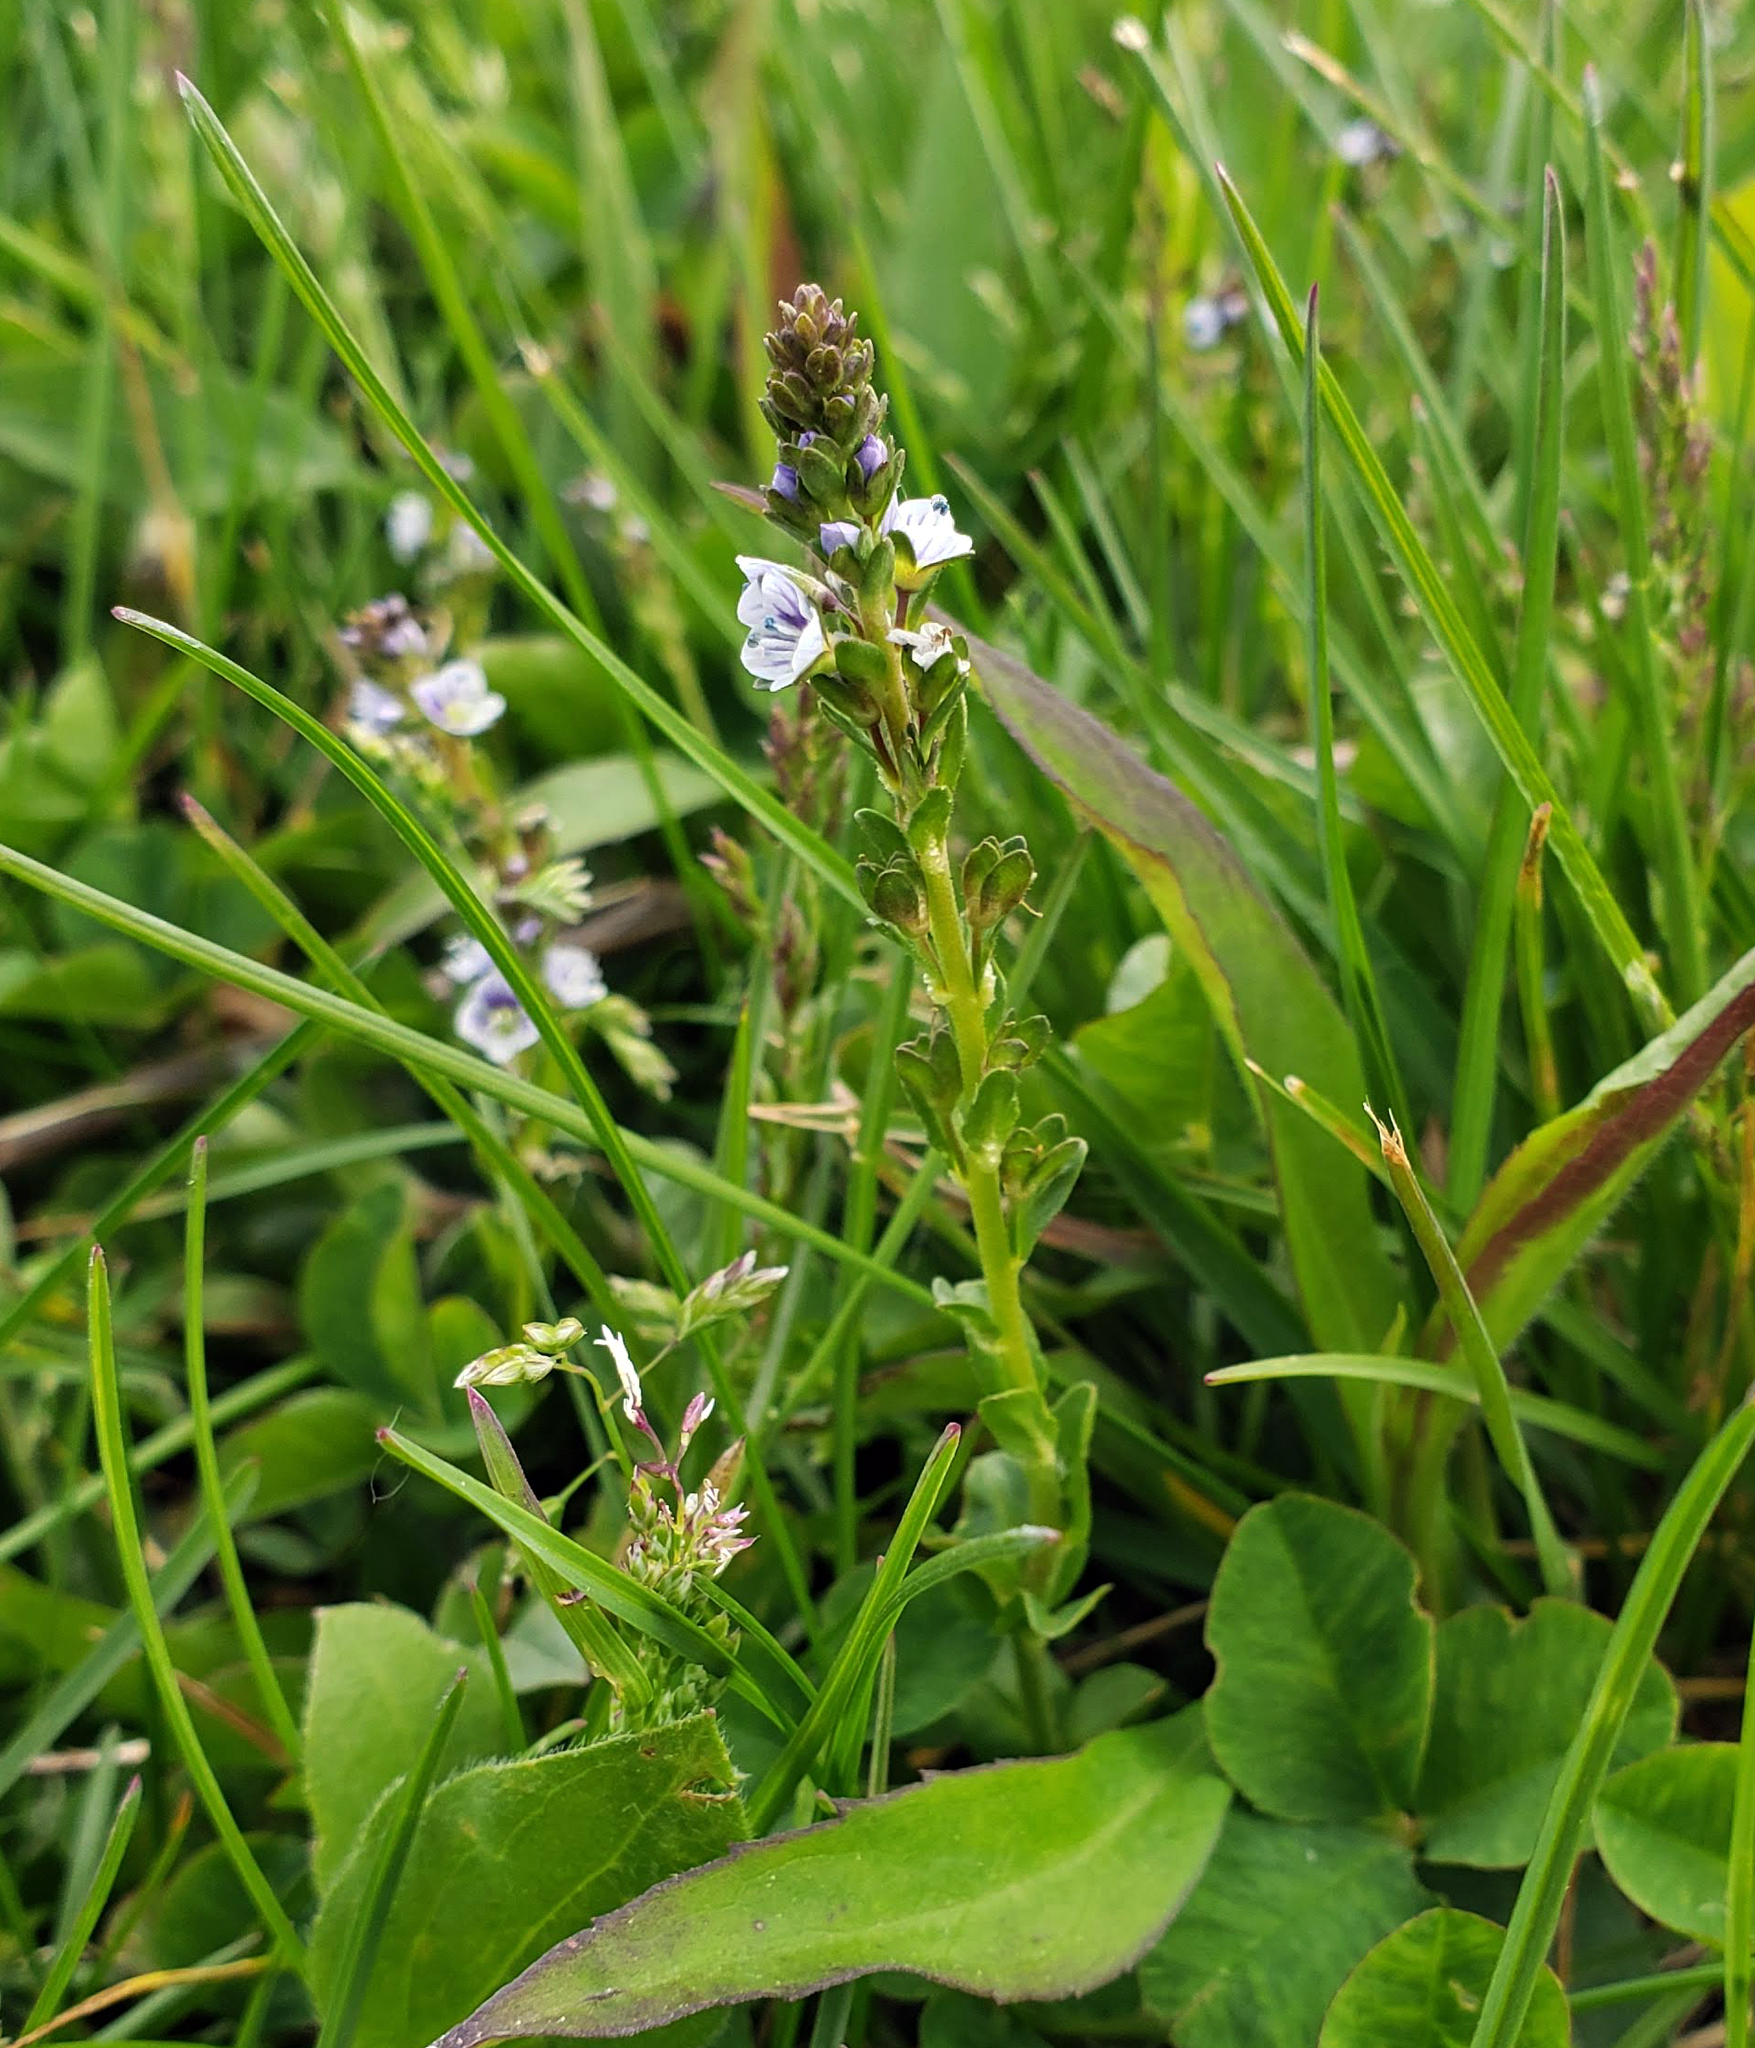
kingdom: Plantae
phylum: Tracheophyta
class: Magnoliopsida
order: Lamiales
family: Plantaginaceae
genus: Veronica
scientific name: Veronica serpyllifolia
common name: Thyme-leaved speedwell
